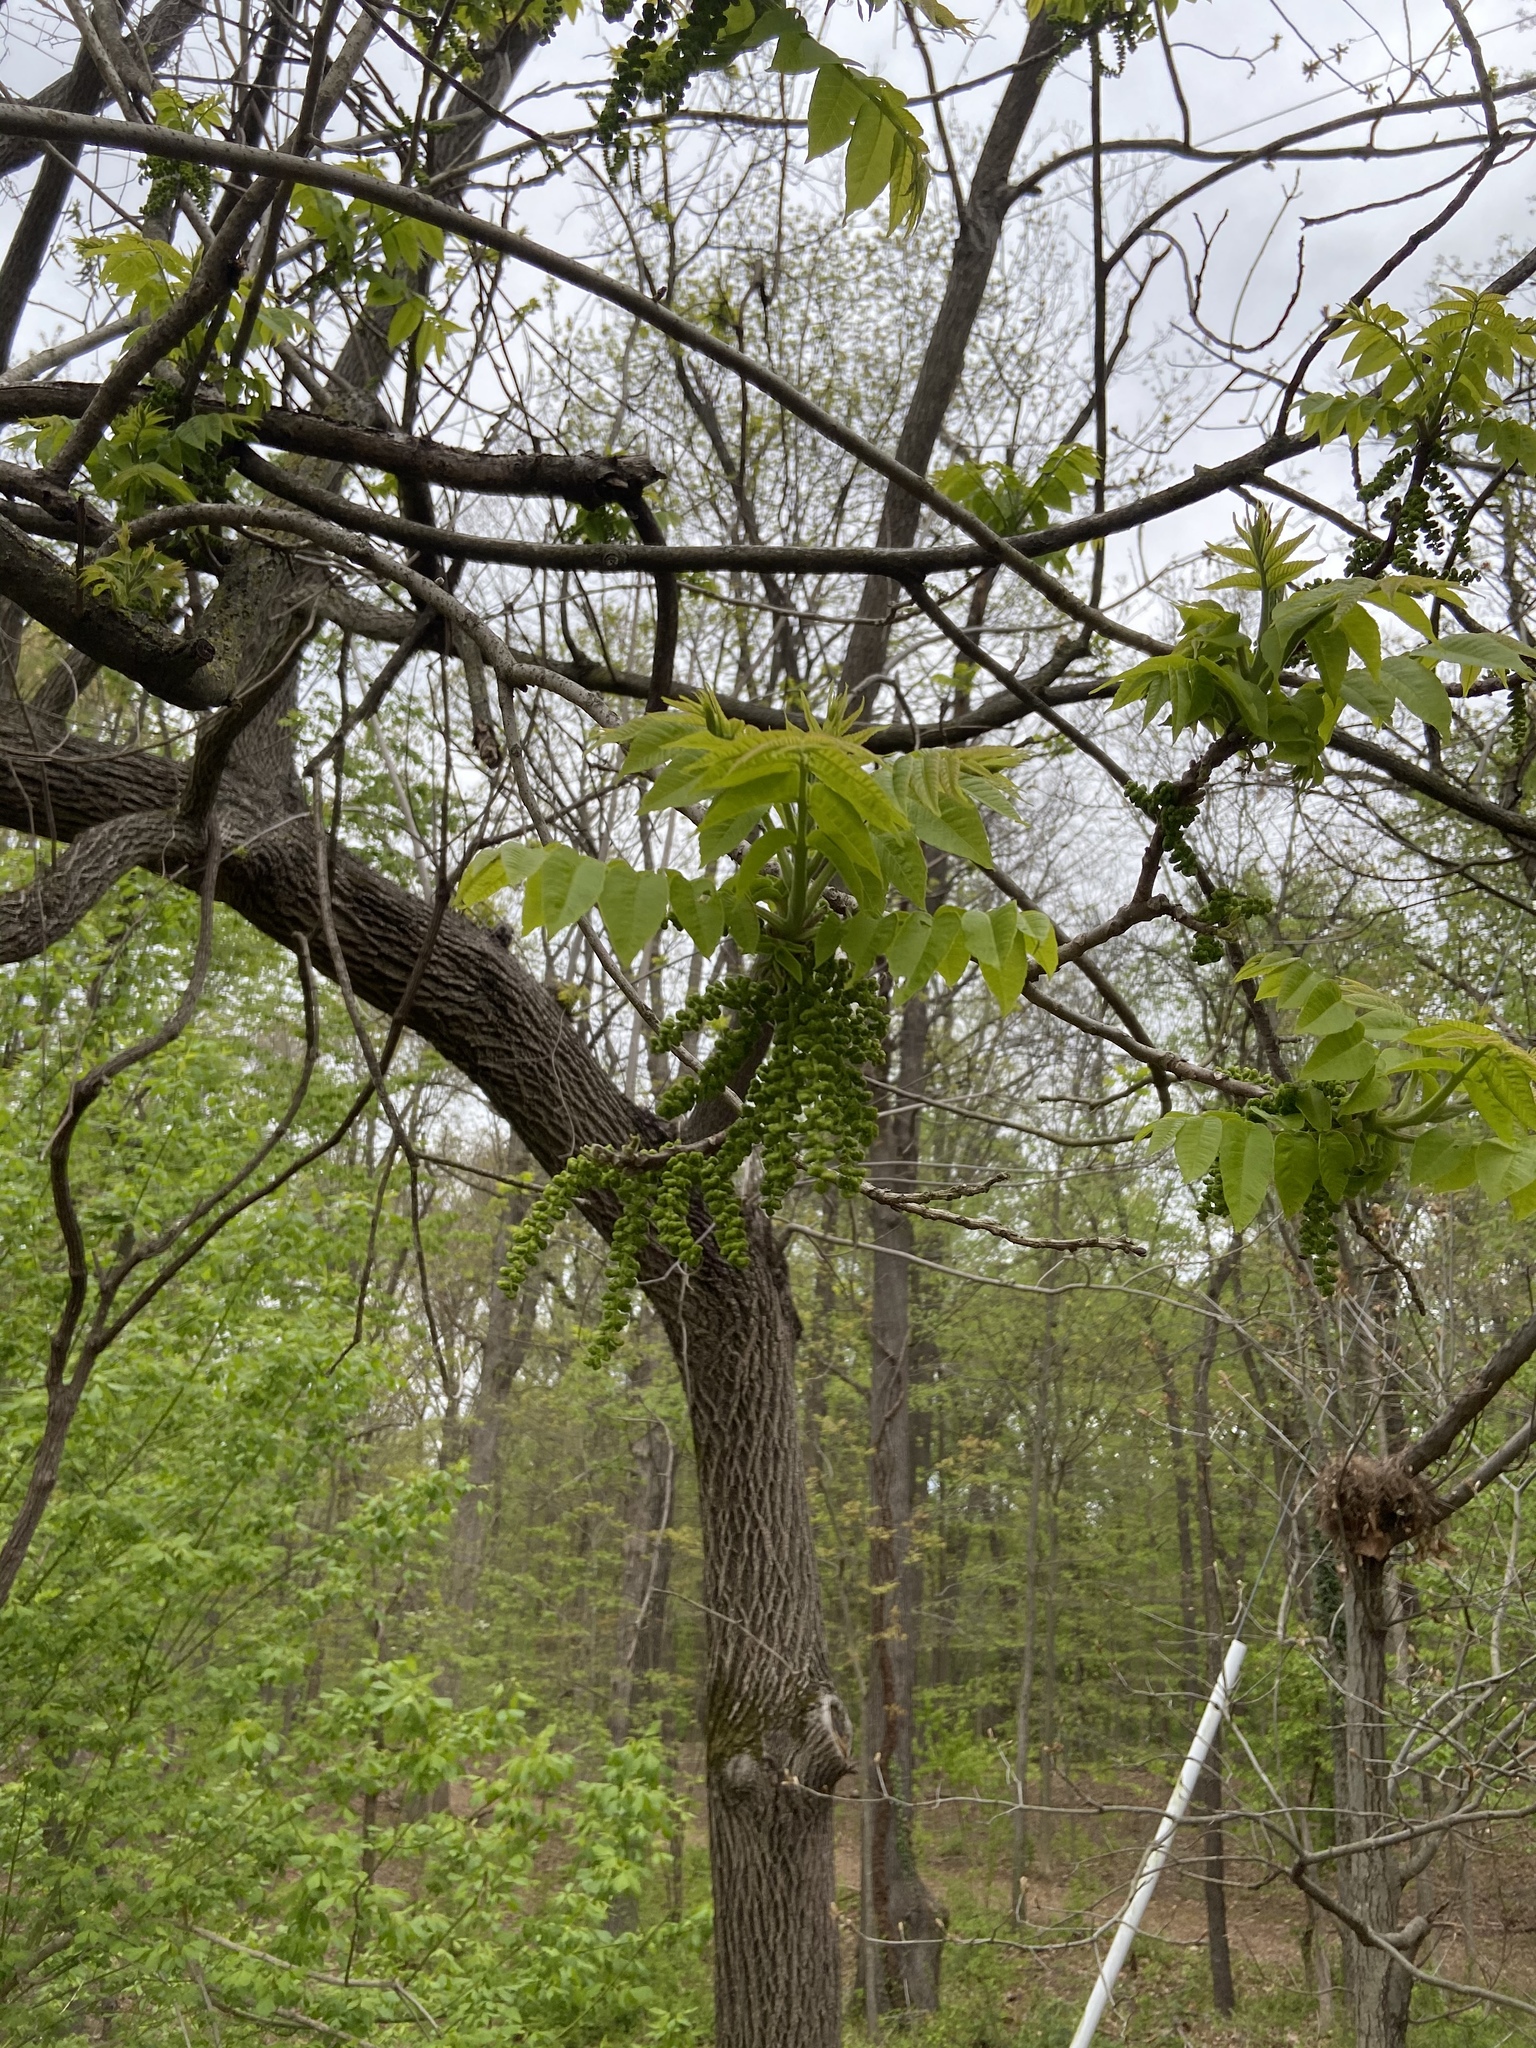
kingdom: Plantae
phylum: Tracheophyta
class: Magnoliopsida
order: Fagales
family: Juglandaceae
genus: Juglans
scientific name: Juglans nigra
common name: Black walnut
